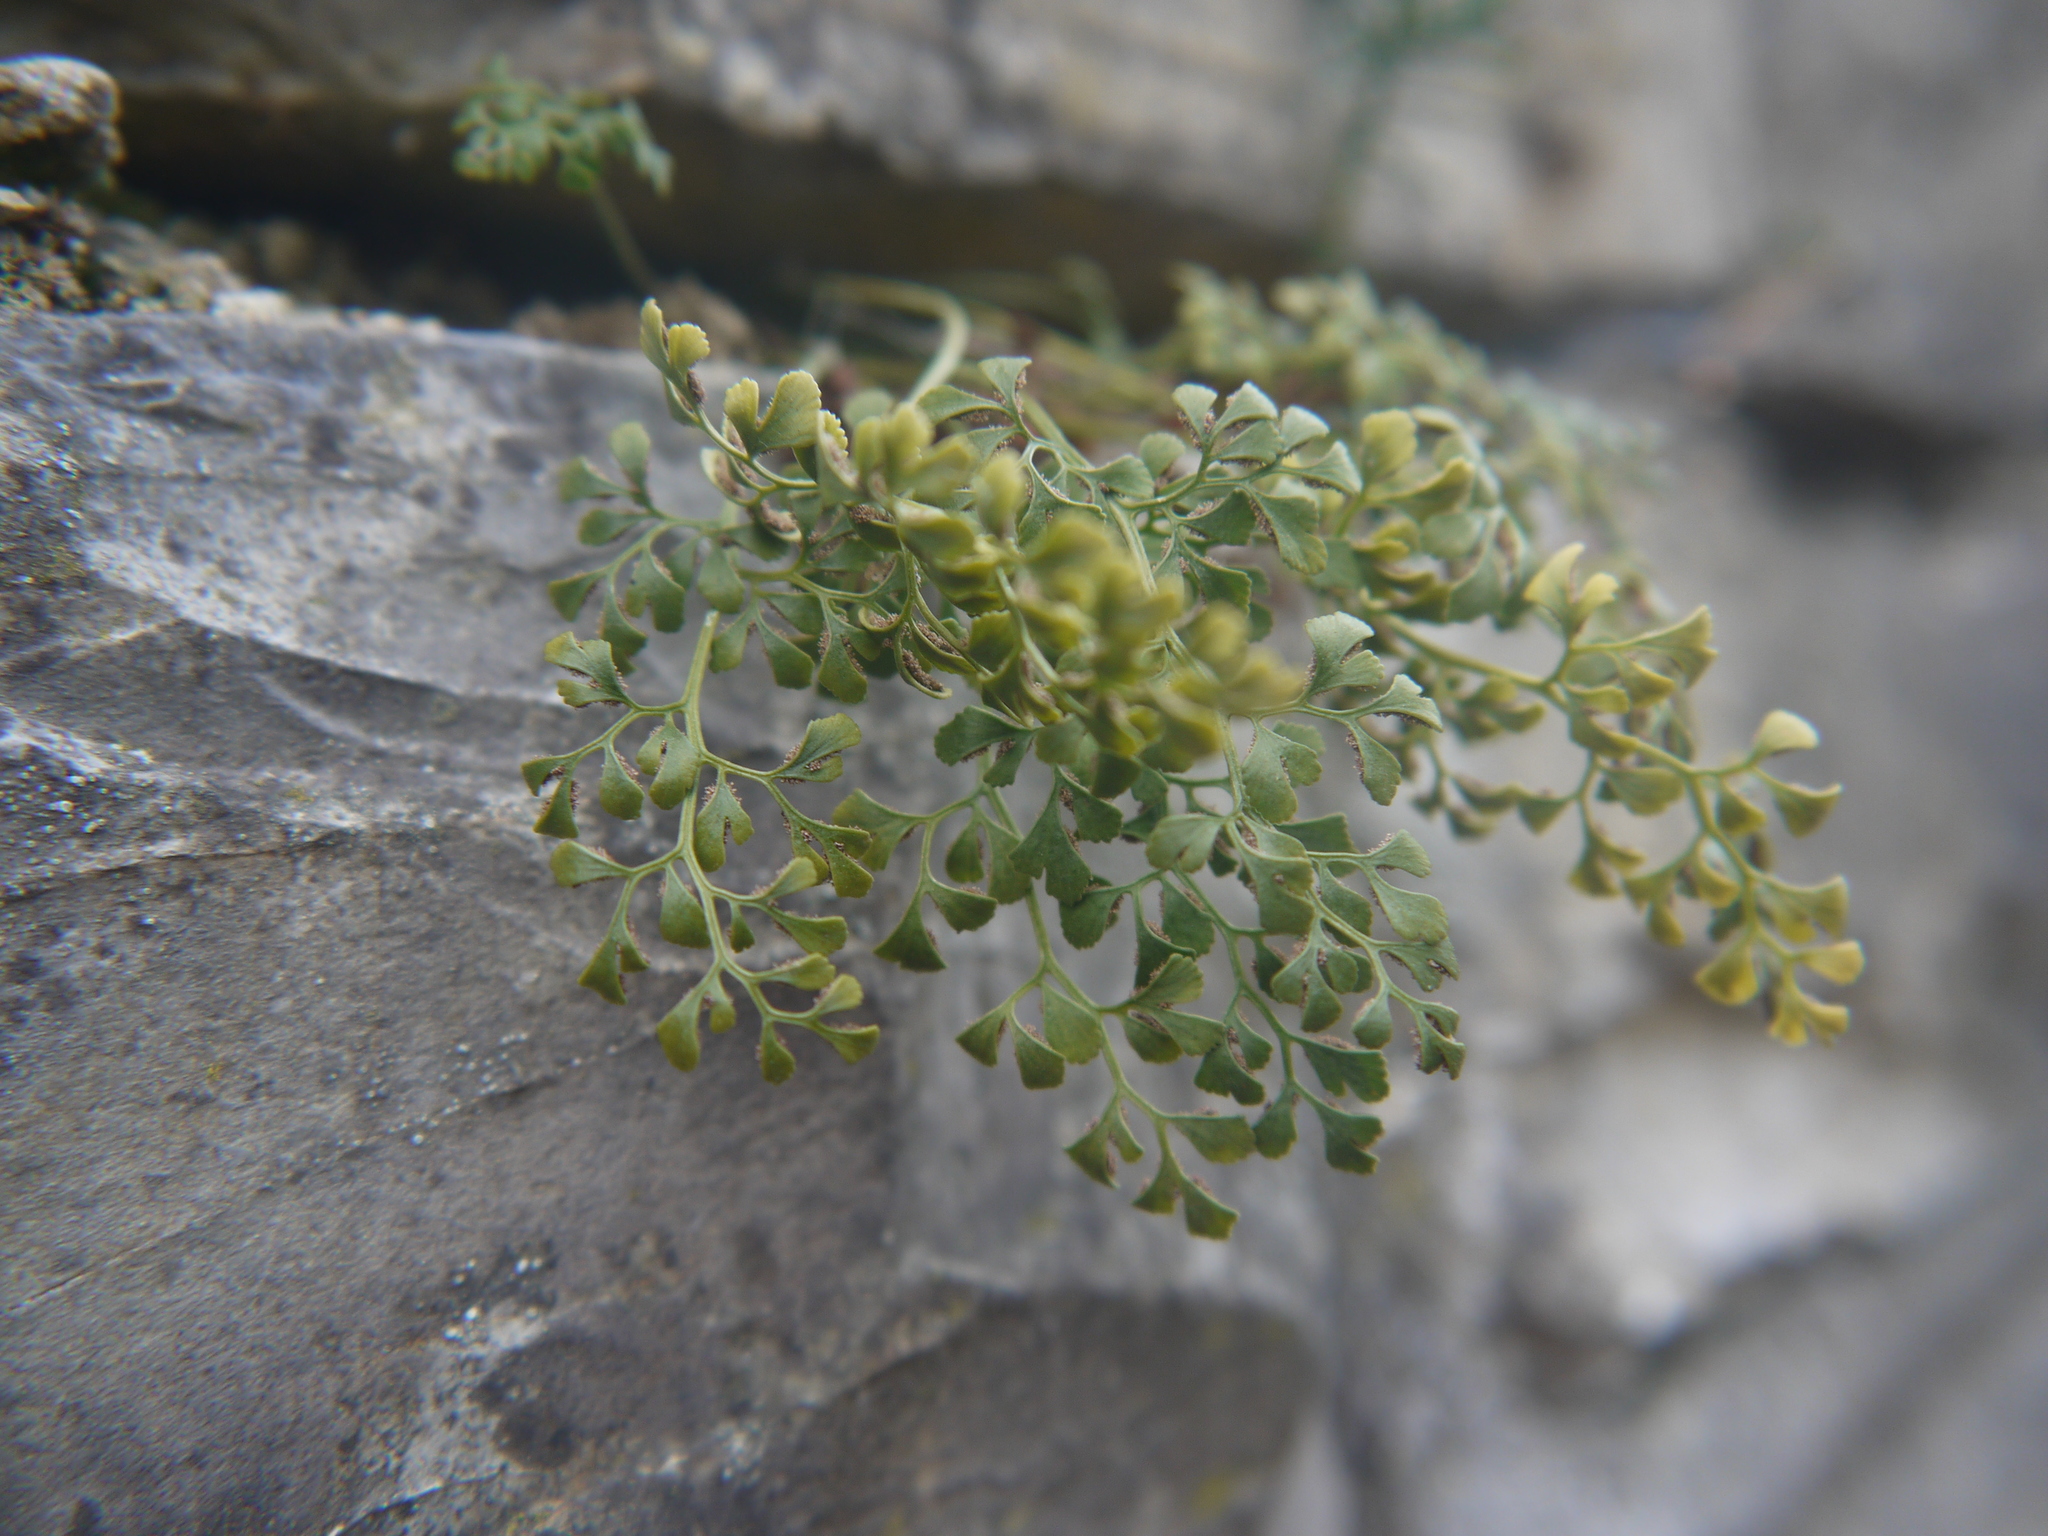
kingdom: Plantae
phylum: Tracheophyta
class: Polypodiopsida
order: Polypodiales
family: Aspleniaceae
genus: Asplenium
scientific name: Asplenium ruta-muraria
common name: Wall-rue
